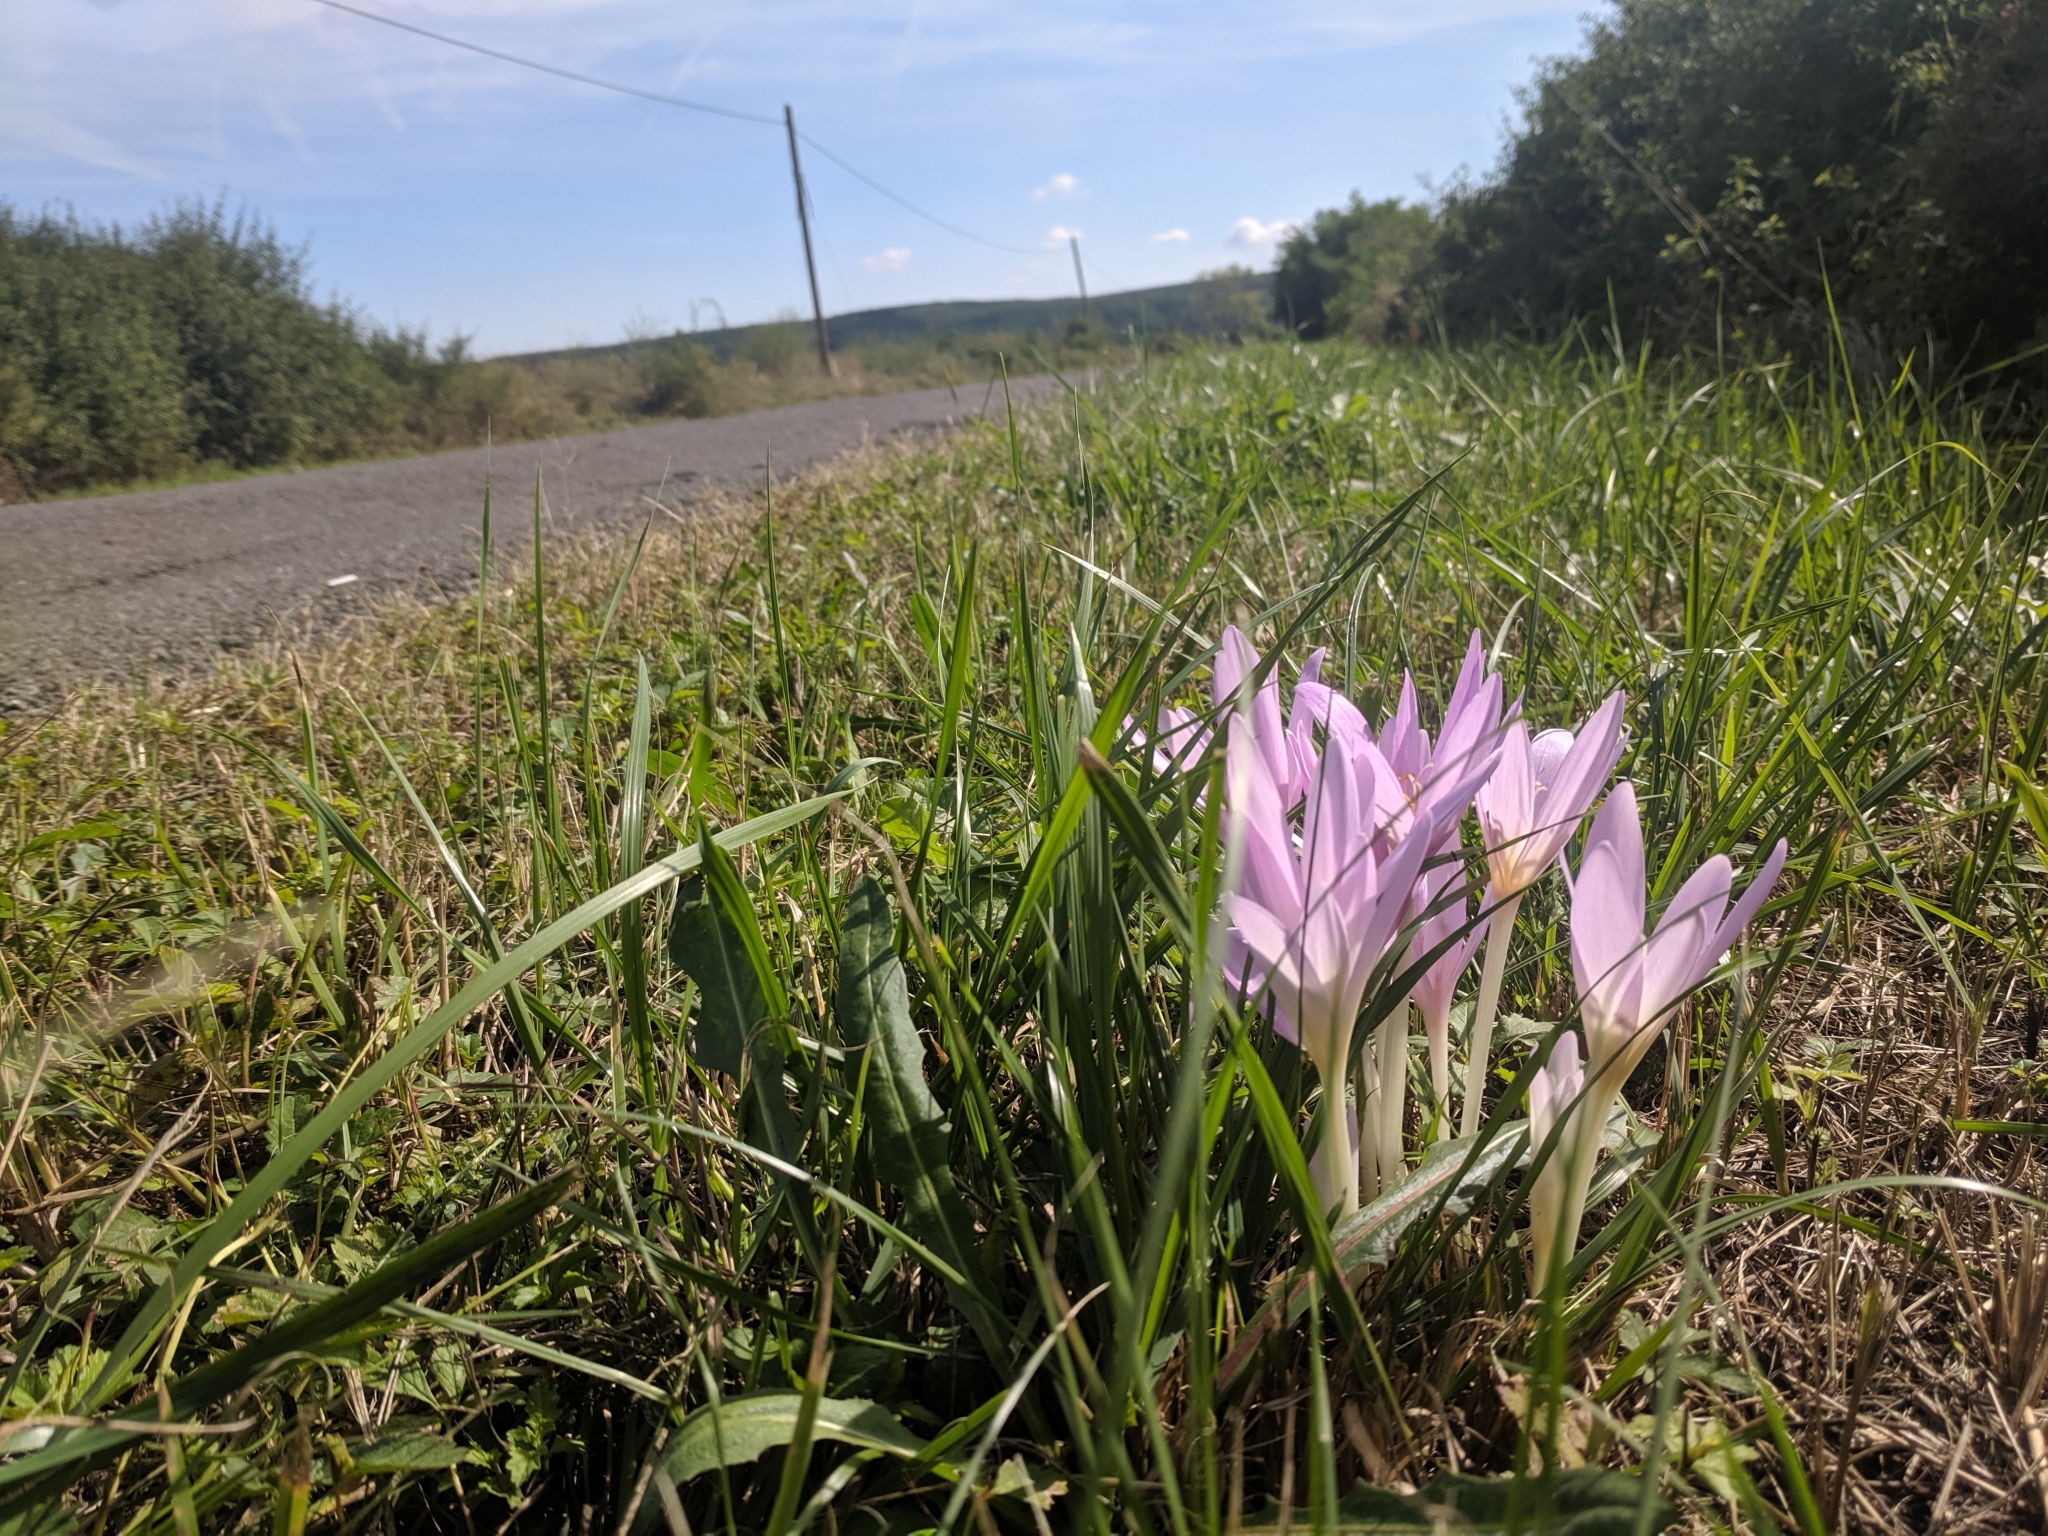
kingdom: Plantae
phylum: Tracheophyta
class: Liliopsida
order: Liliales
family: Colchicaceae
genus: Colchicum
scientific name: Colchicum autumnale
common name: Autumn crocus
